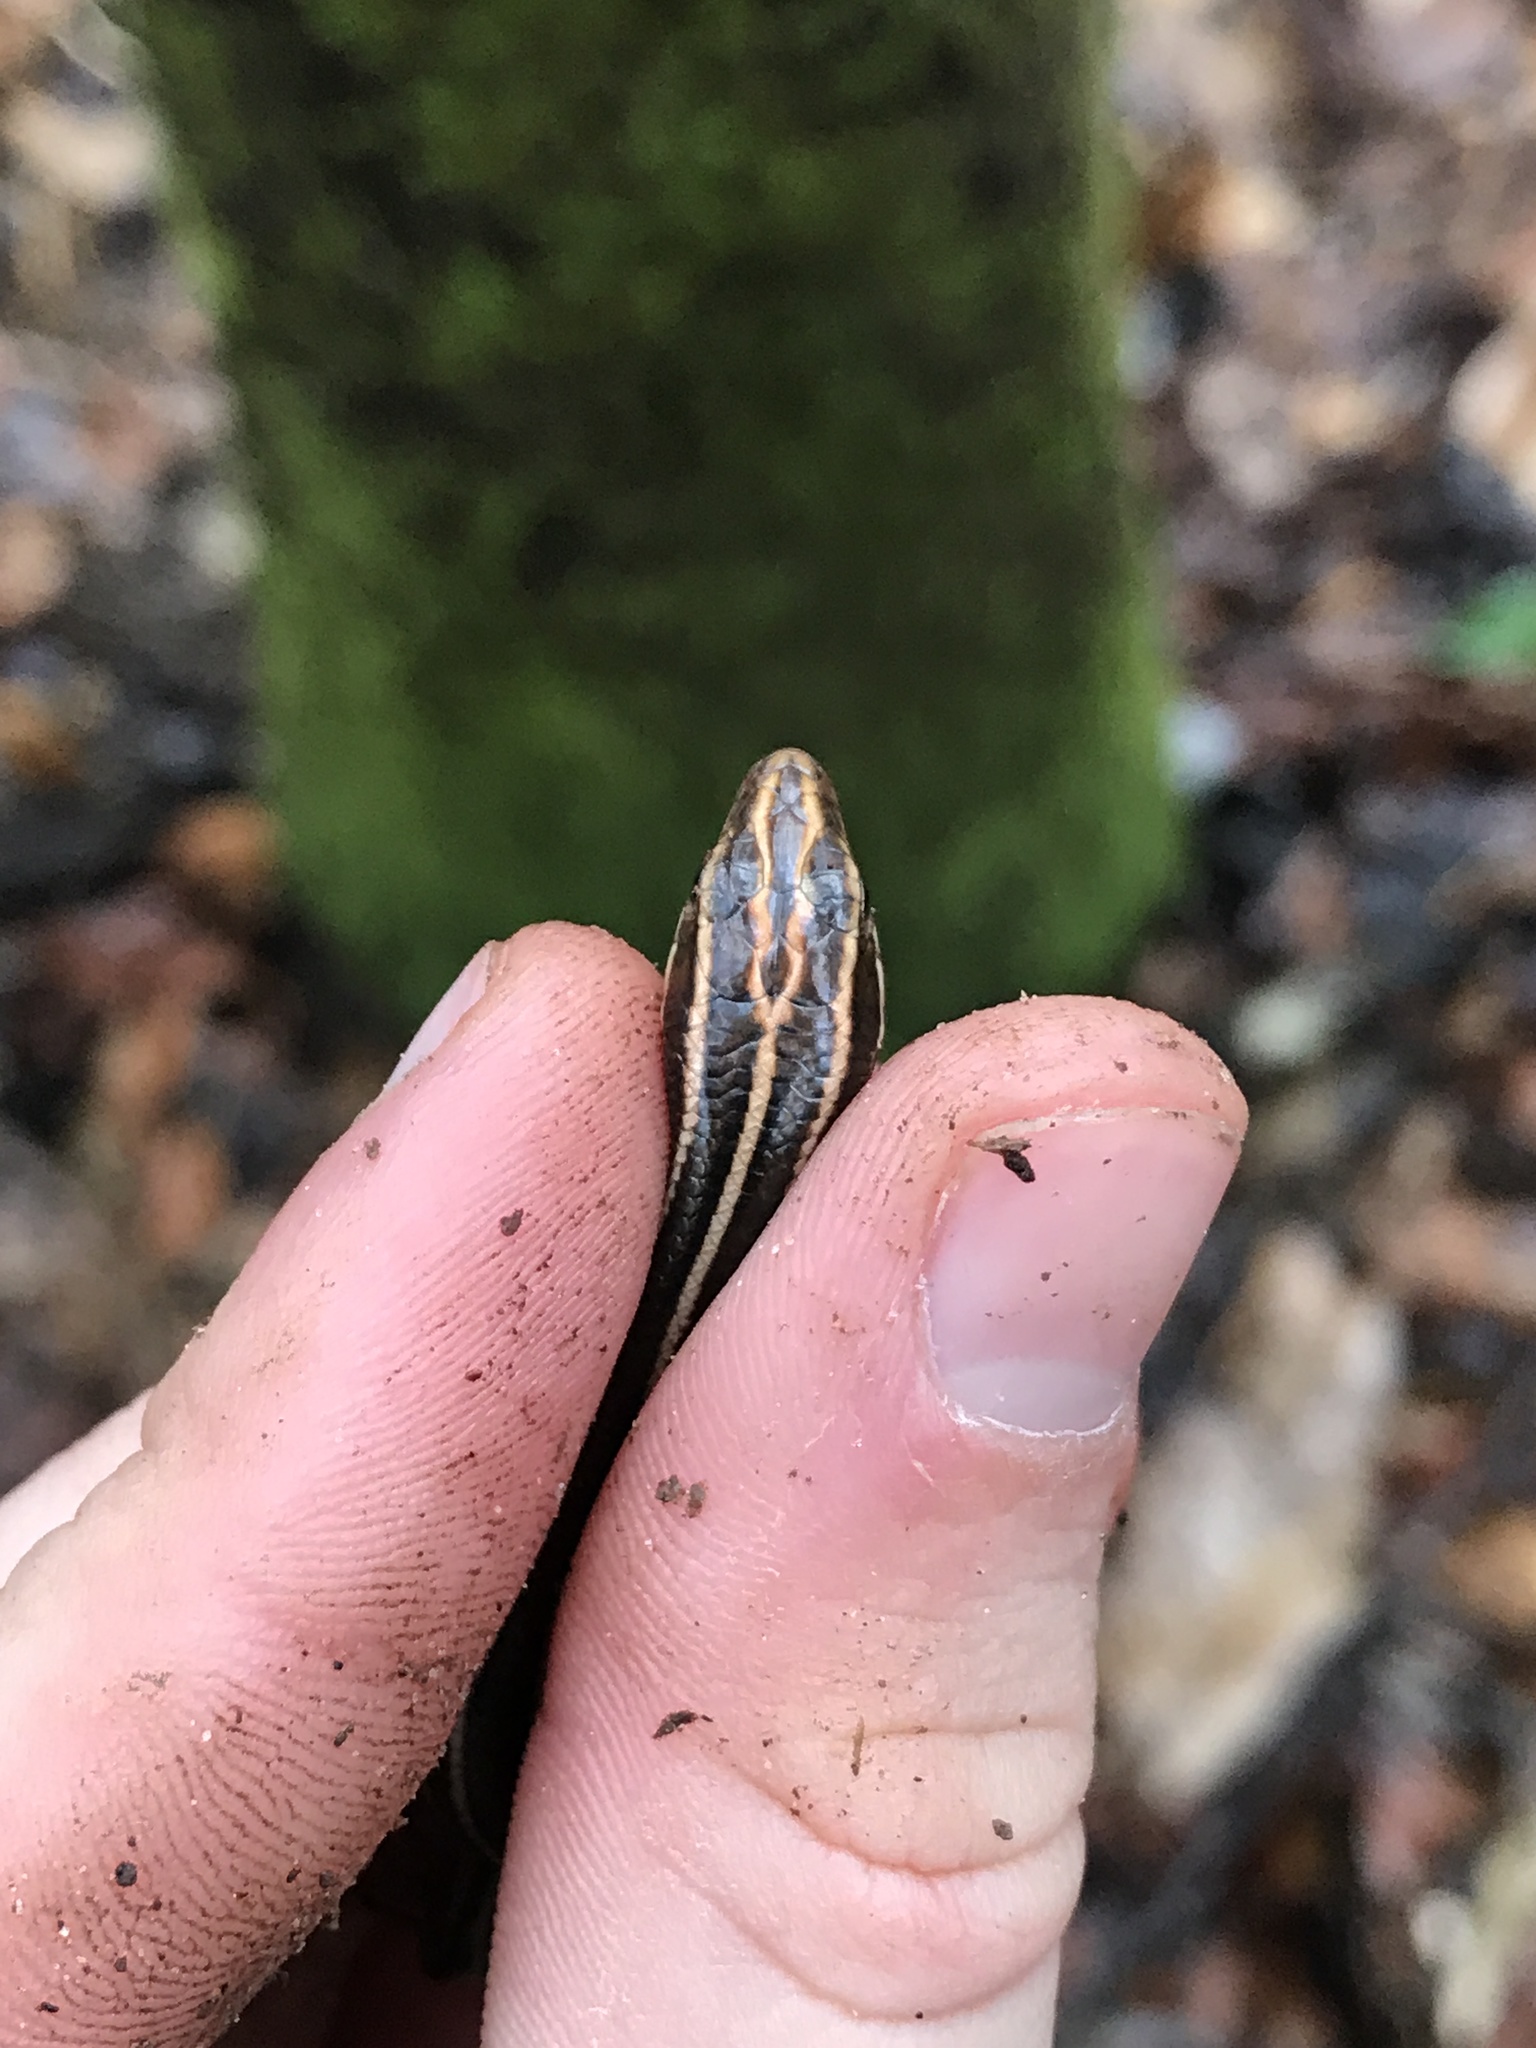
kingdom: Animalia
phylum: Chordata
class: Squamata
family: Scincidae
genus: Plestiodon
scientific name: Plestiodon fasciatus
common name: Five-lined skink
